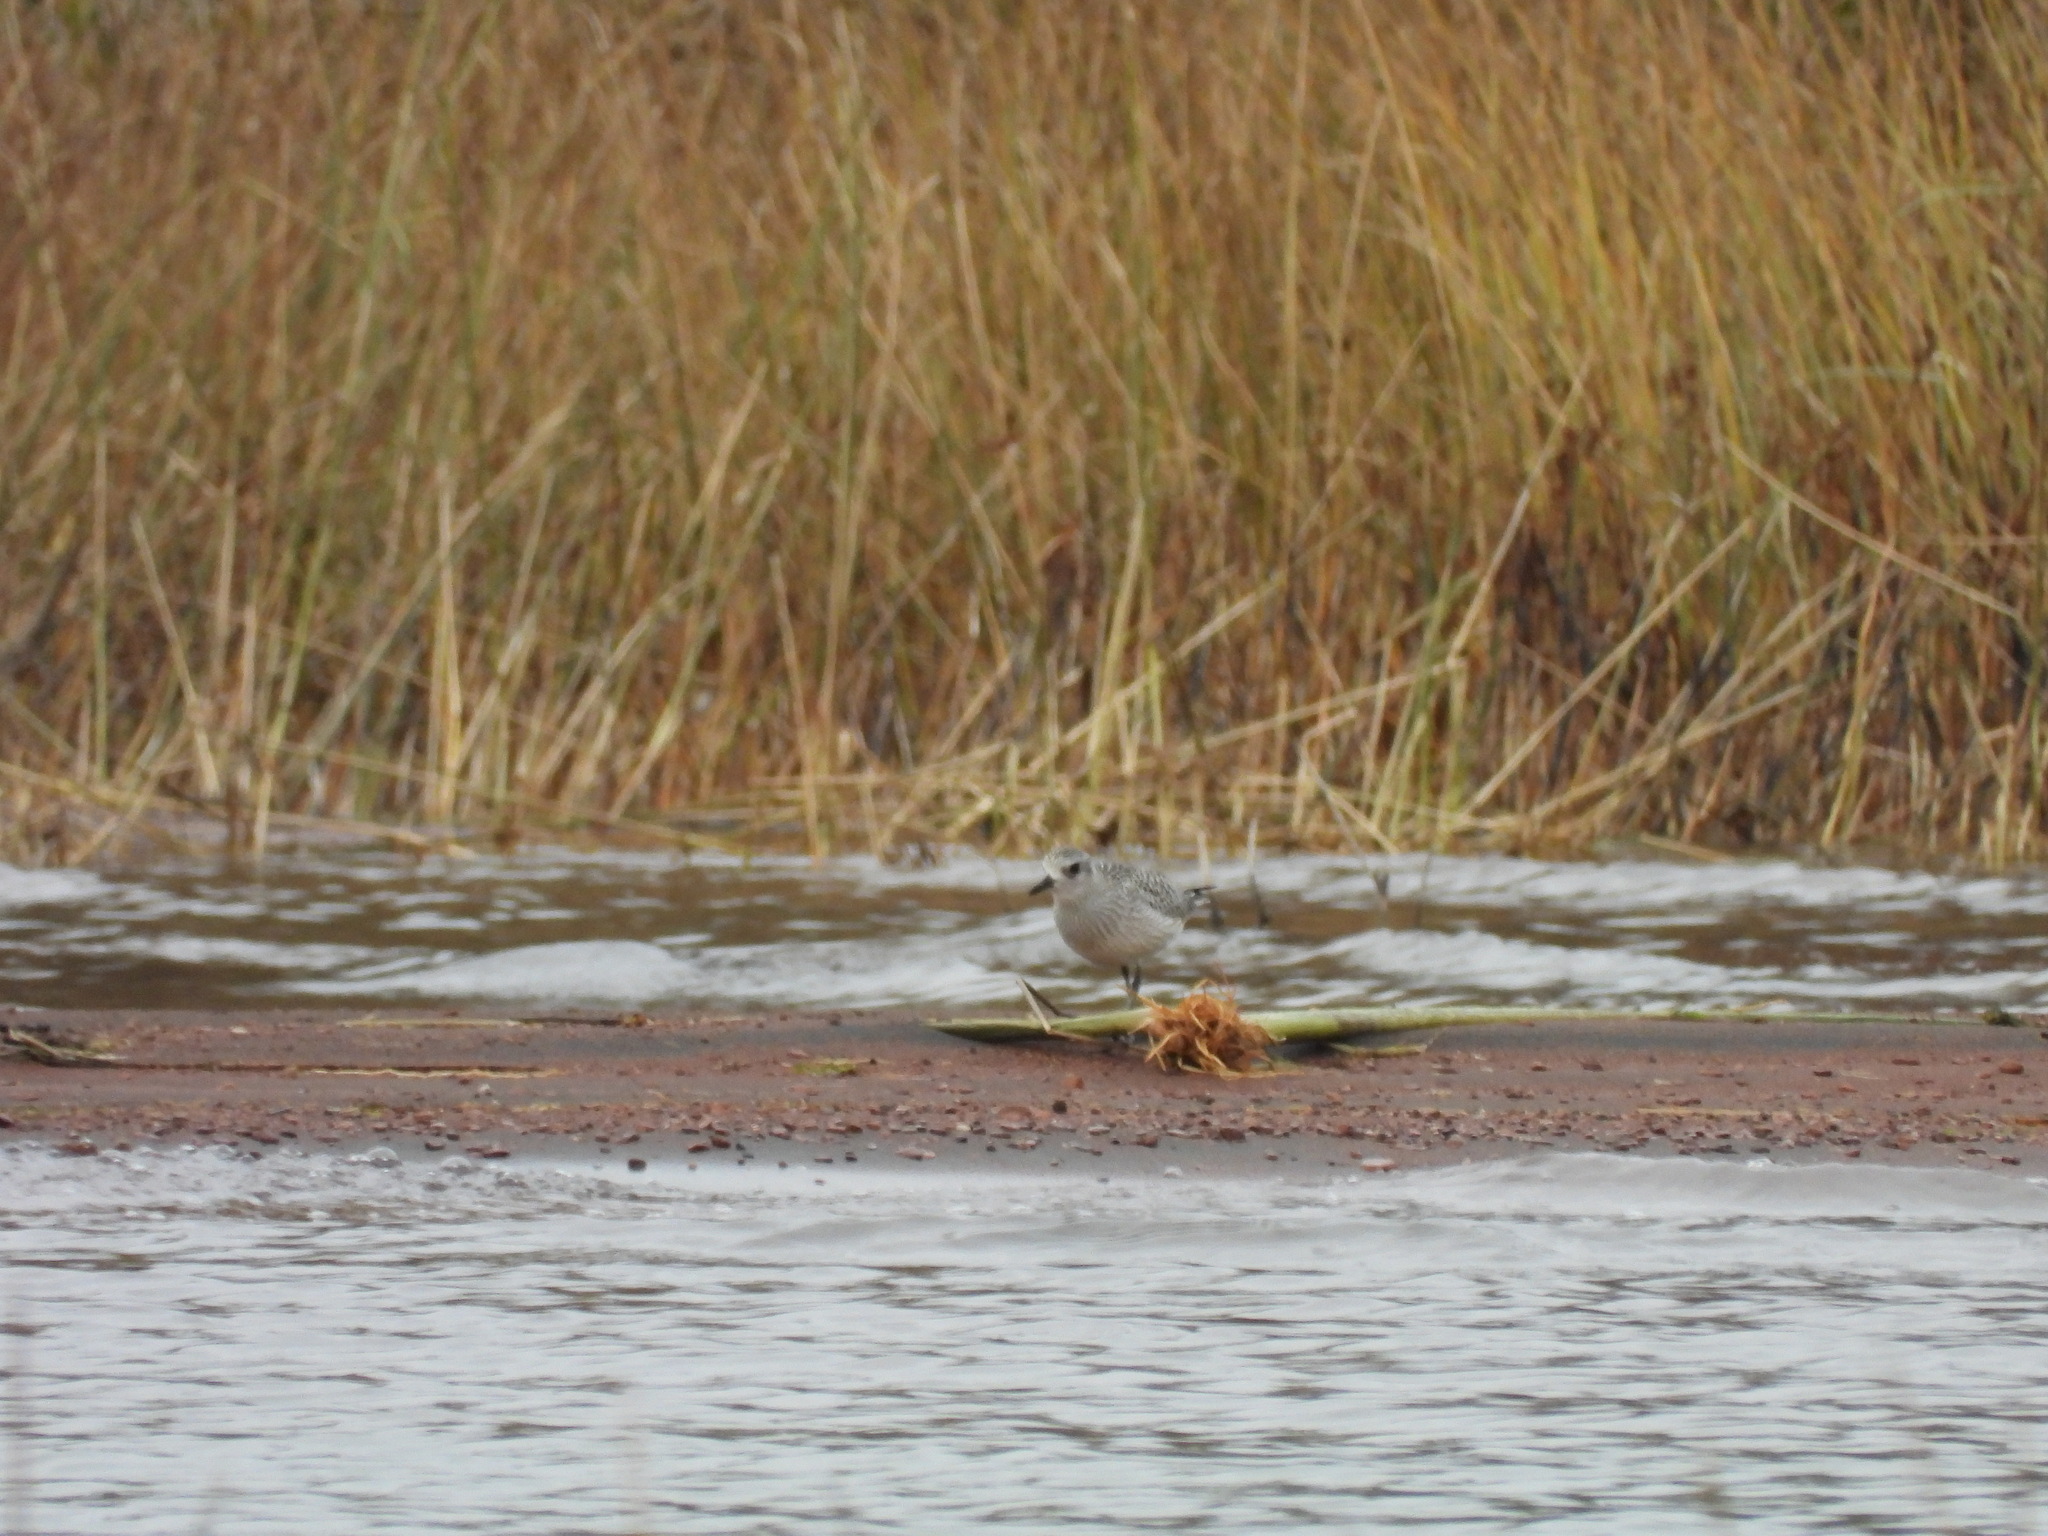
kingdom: Animalia
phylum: Chordata
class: Aves
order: Charadriiformes
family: Charadriidae
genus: Pluvialis
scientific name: Pluvialis squatarola
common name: Grey plover
